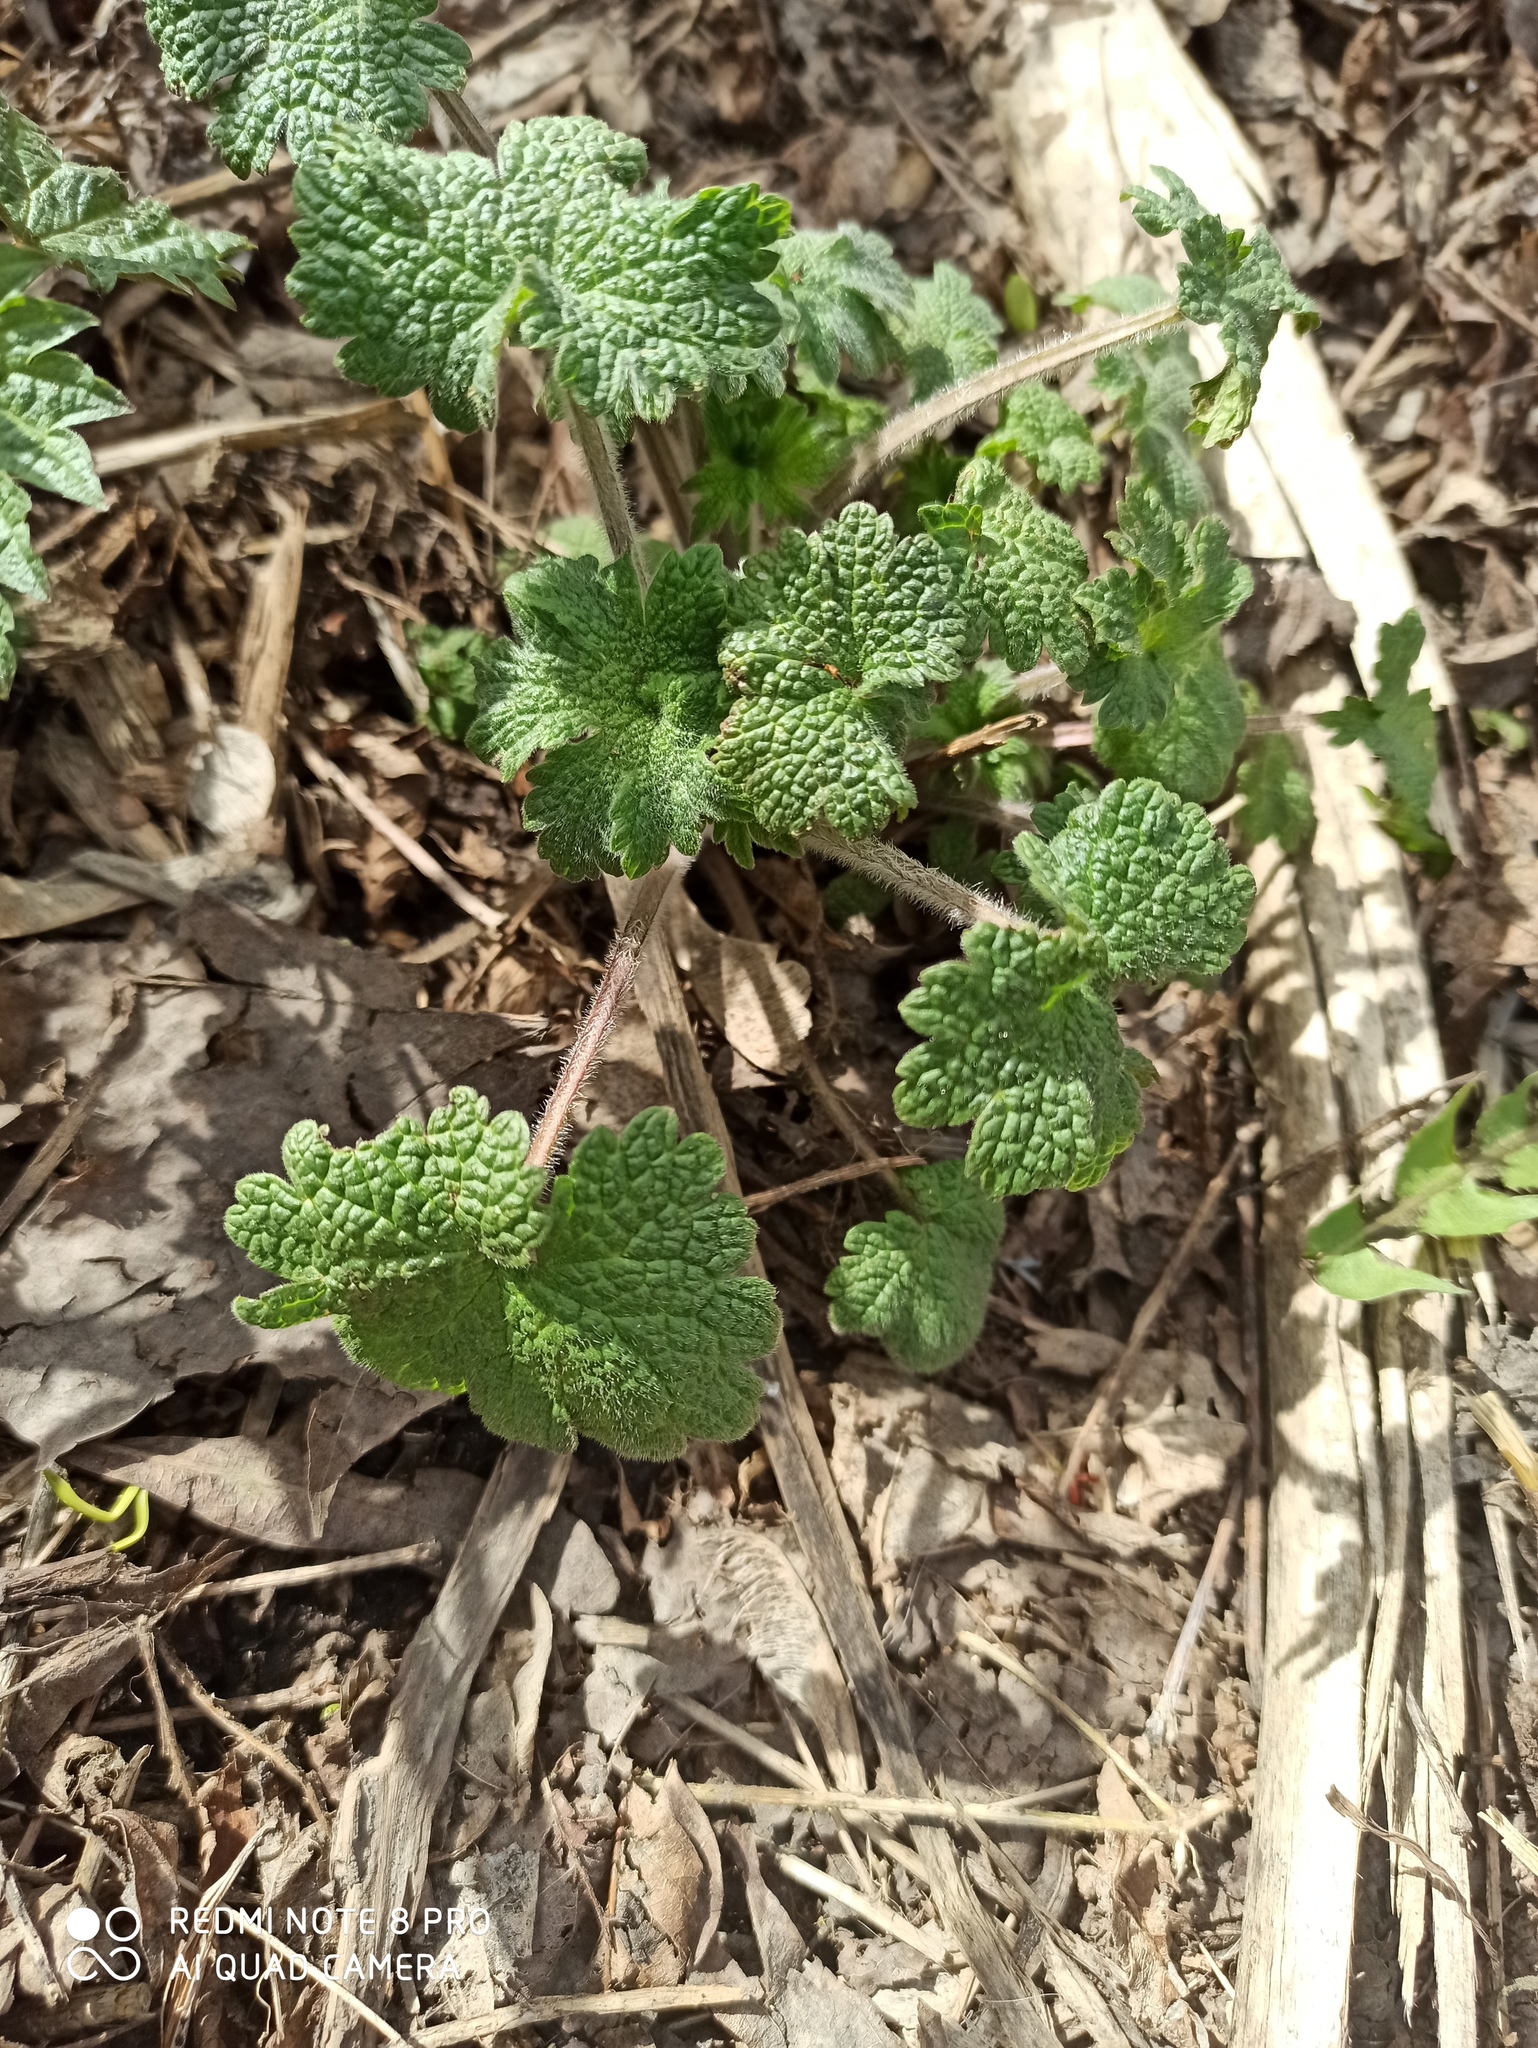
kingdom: Plantae
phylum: Tracheophyta
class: Magnoliopsida
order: Lamiales
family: Lamiaceae
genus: Leonurus
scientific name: Leonurus quinquelobatus
